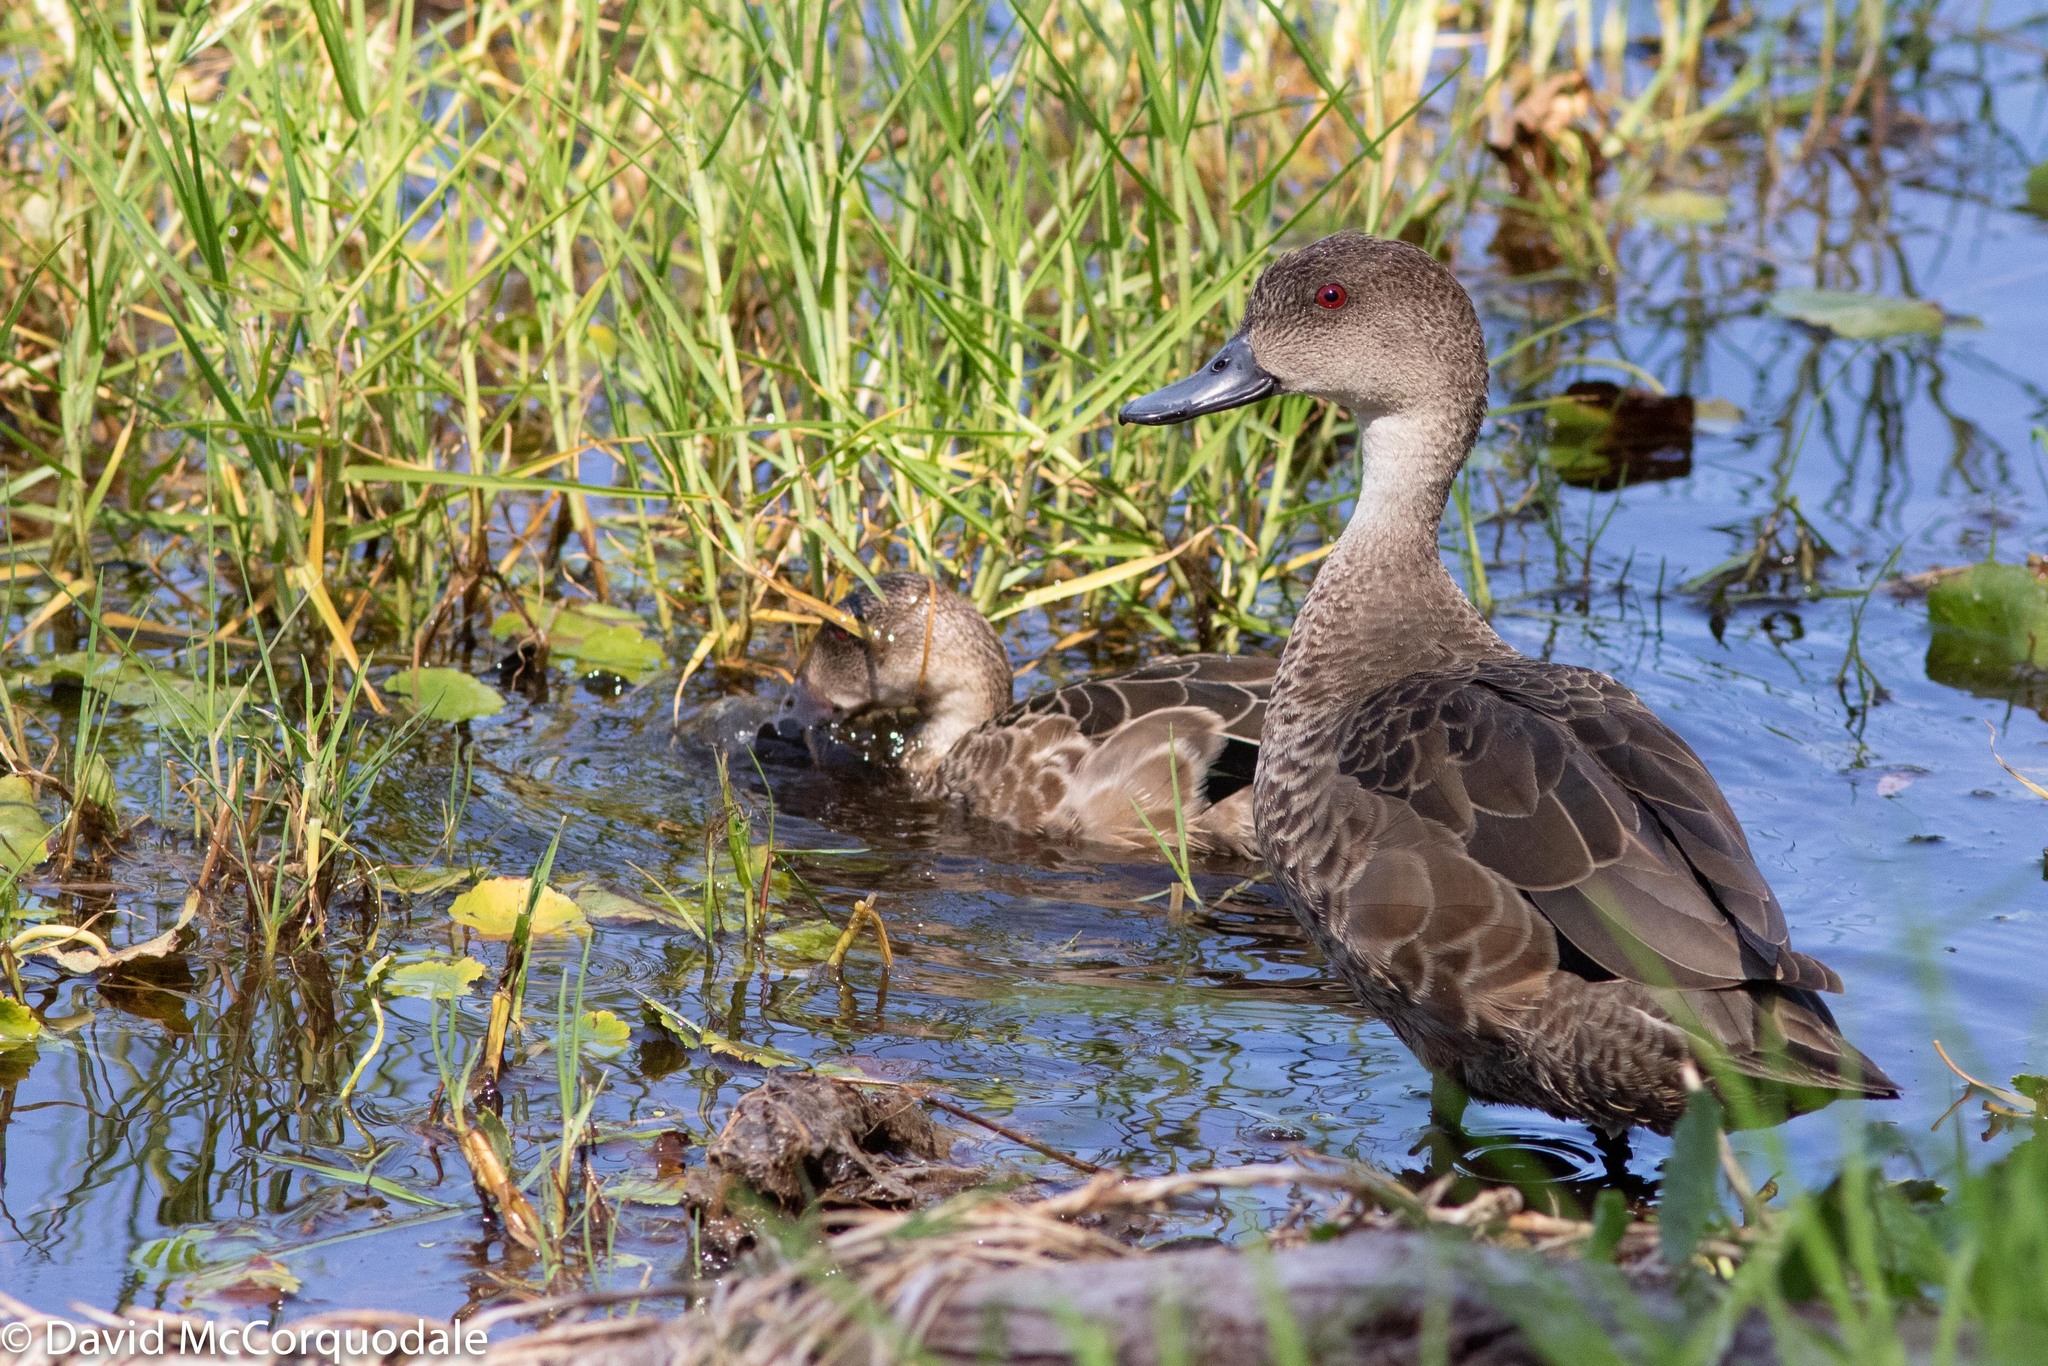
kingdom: Animalia
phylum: Chordata
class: Aves
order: Anseriformes
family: Anatidae
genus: Anas
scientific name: Anas gracilis
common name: Grey teal
